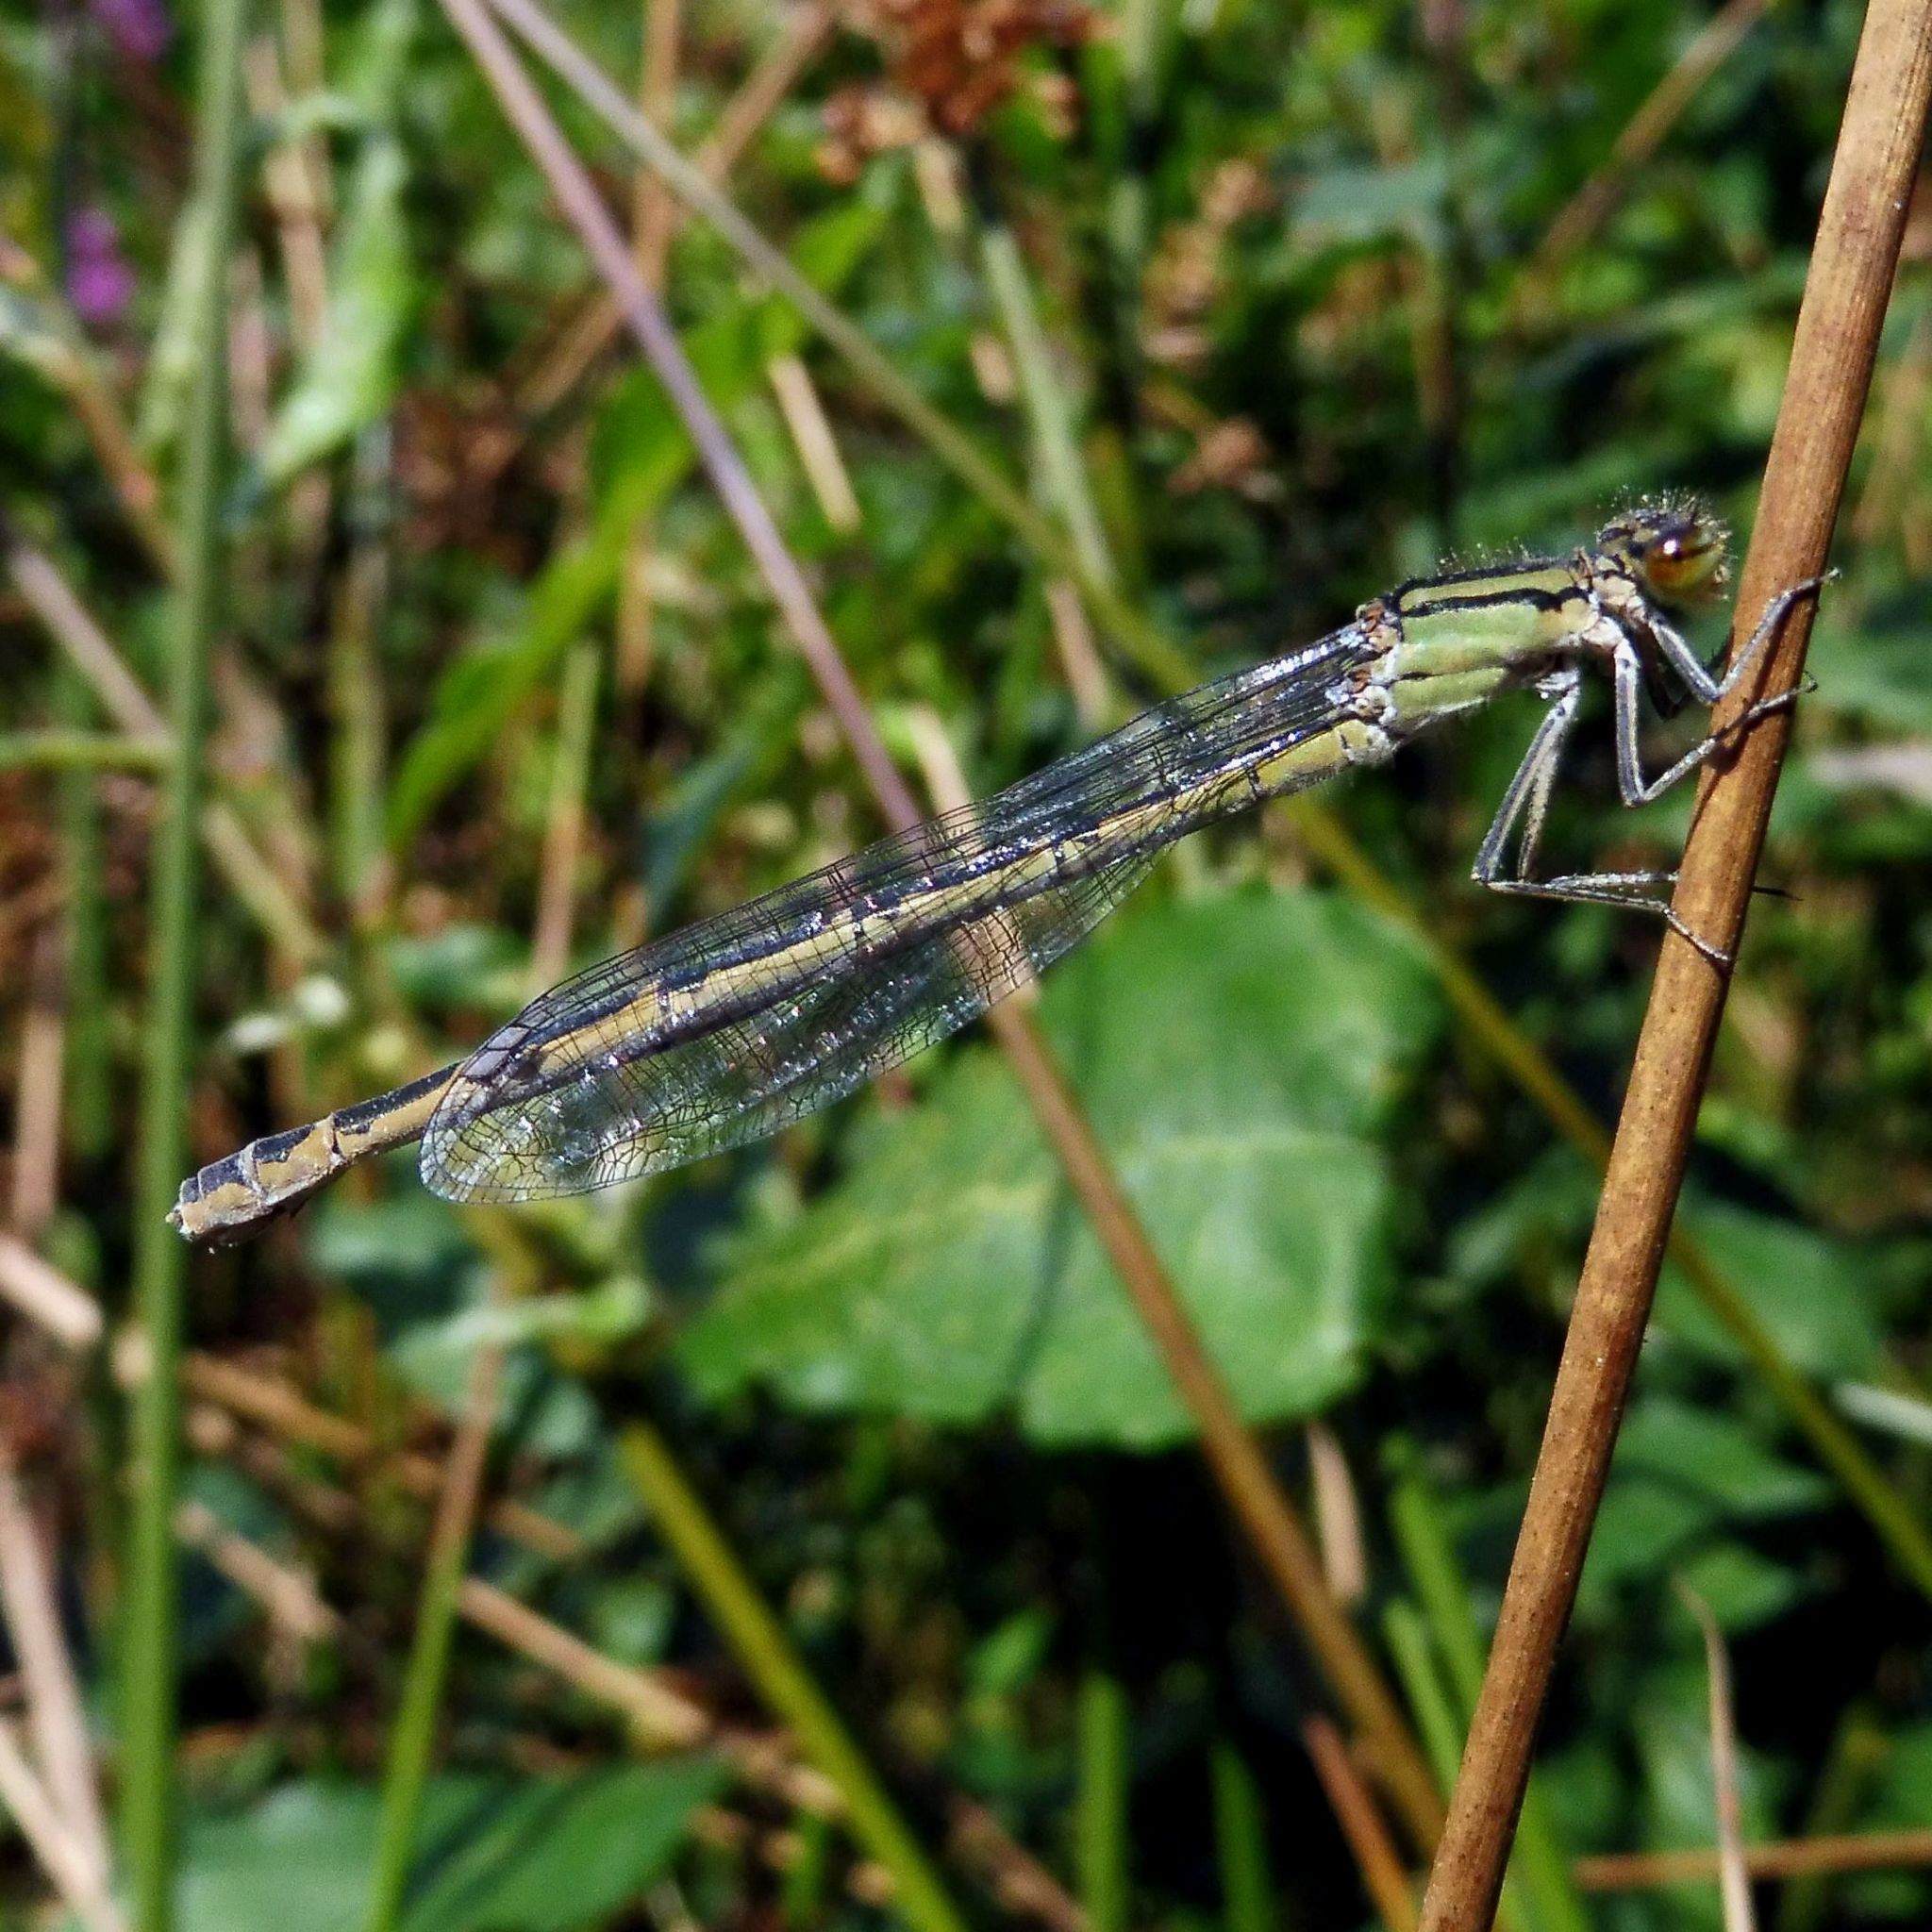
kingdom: Animalia
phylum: Arthropoda
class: Insecta
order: Odonata
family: Coenagrionidae
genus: Enallagma
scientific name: Enallagma cyathigerum
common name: Common blue damselfly
